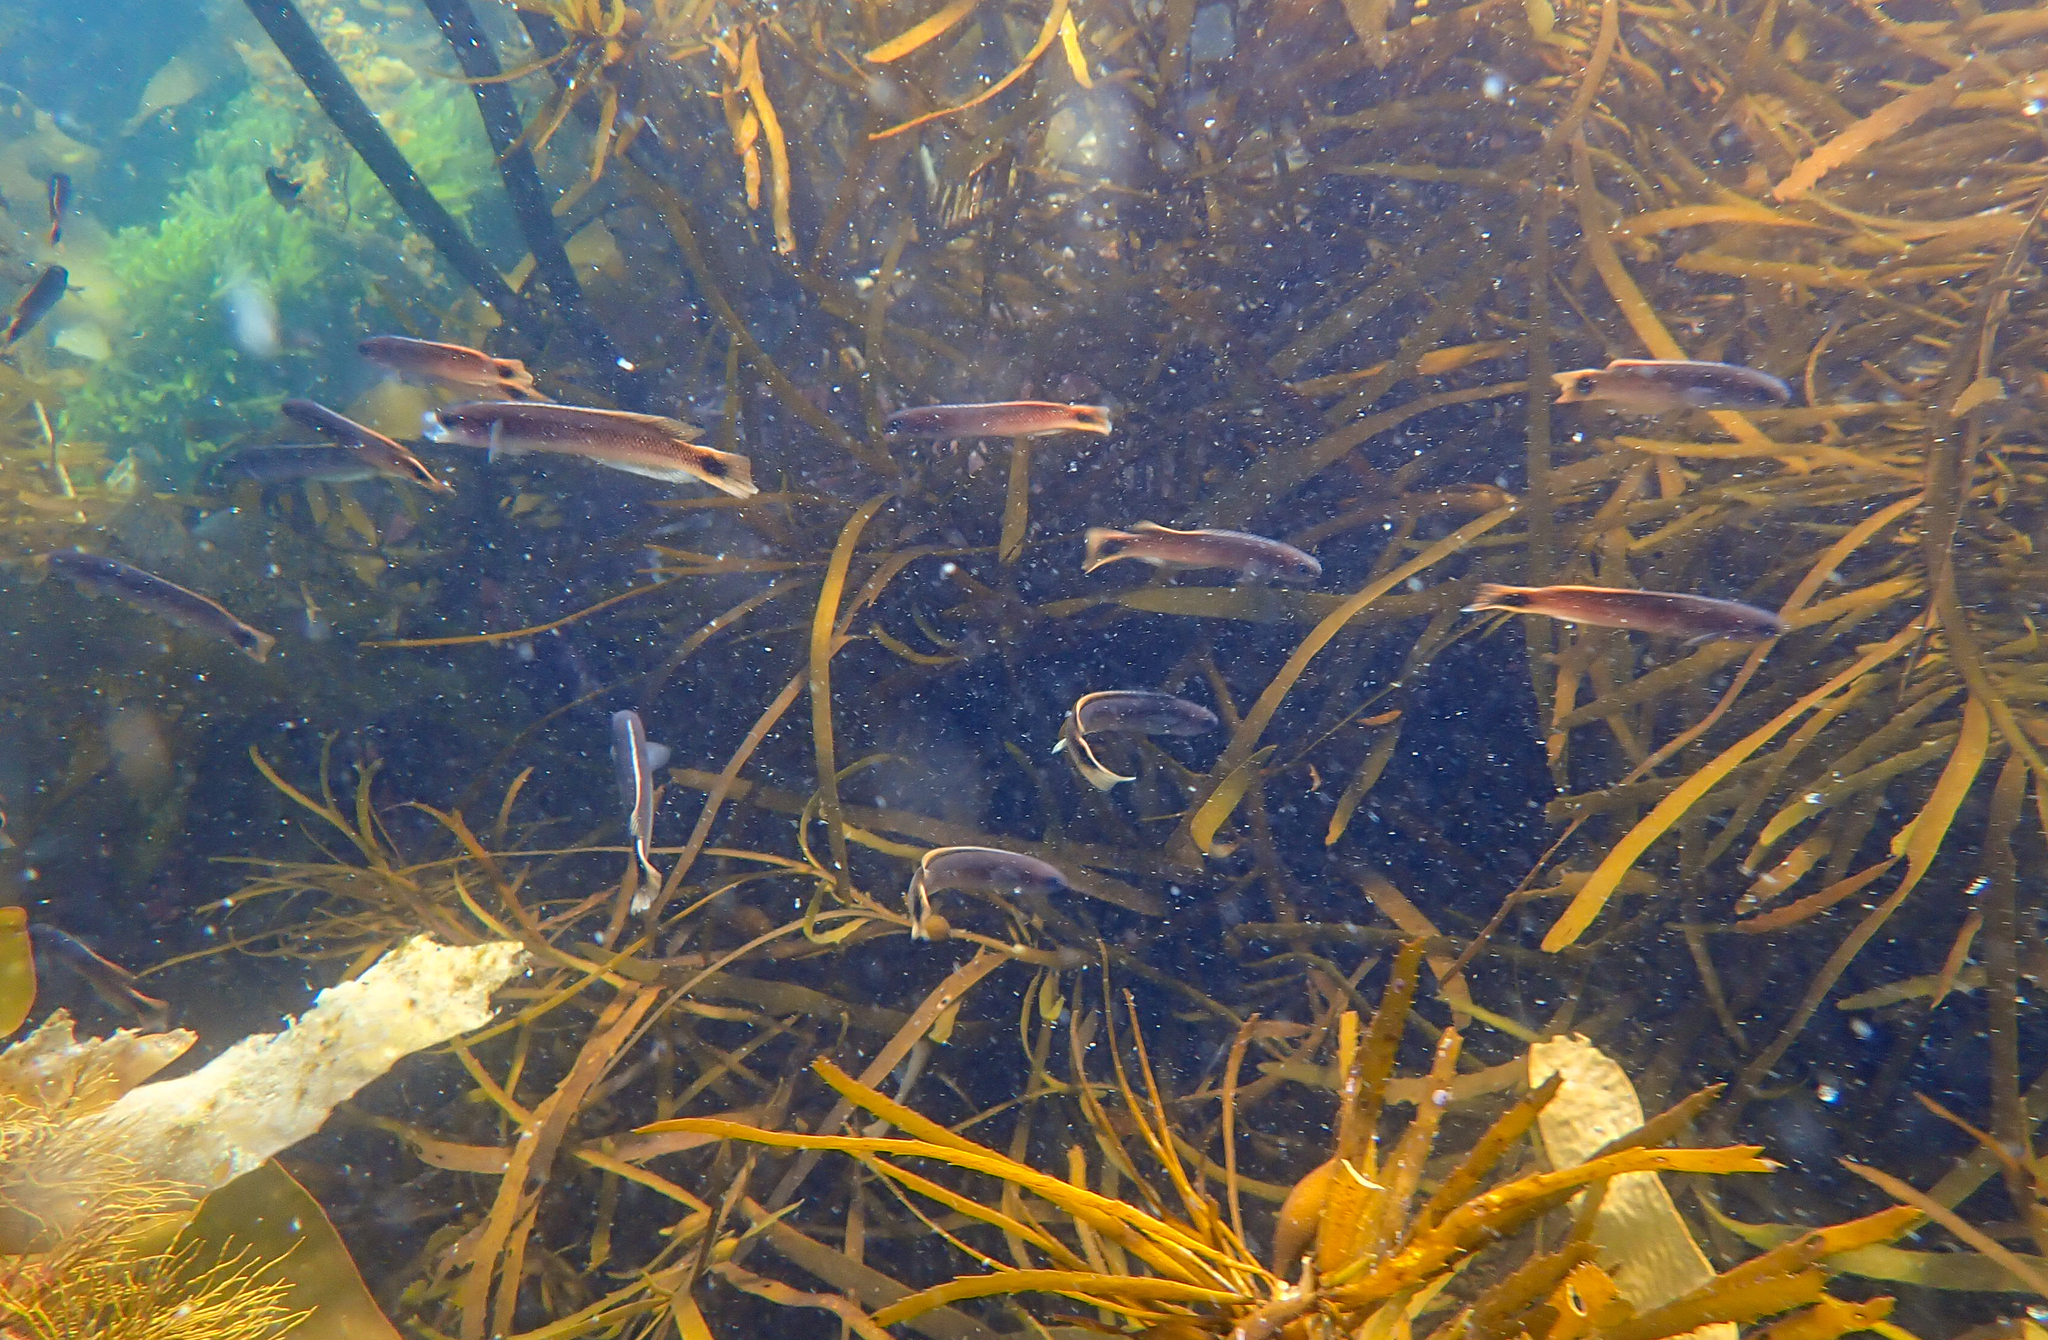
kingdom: Animalia
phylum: Chordata
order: Perciformes
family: Plesiopidae
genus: Trachinops
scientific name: Trachinops caudimaculatus
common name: Blotched-tailed trachinops
